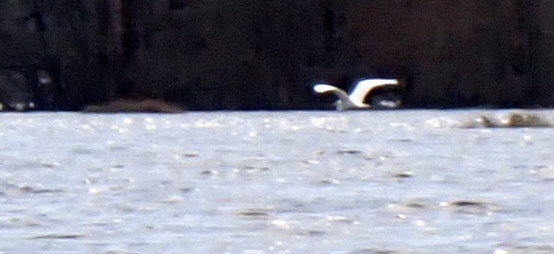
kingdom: Animalia
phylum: Chordata
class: Aves
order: Pelecaniformes
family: Ardeidae
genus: Ardea
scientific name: Ardea alba
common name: Great egret
